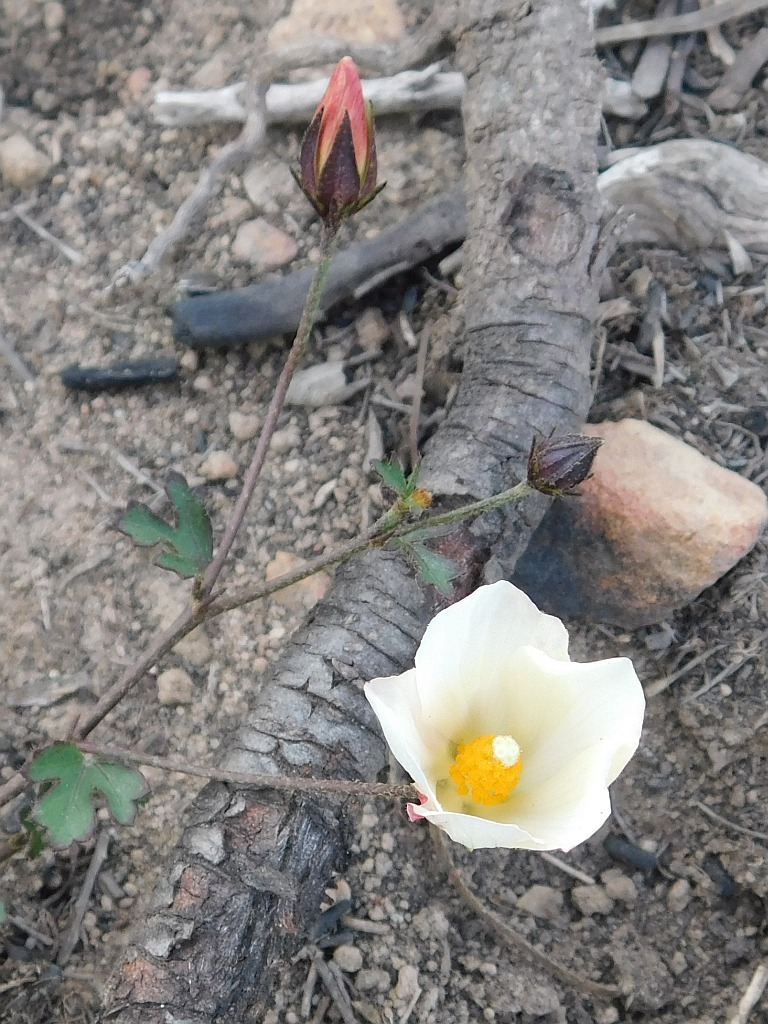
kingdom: Plantae
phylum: Tracheophyta
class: Magnoliopsida
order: Malvales
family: Malvaceae
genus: Hibiscus
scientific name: Hibiscus pusillus
